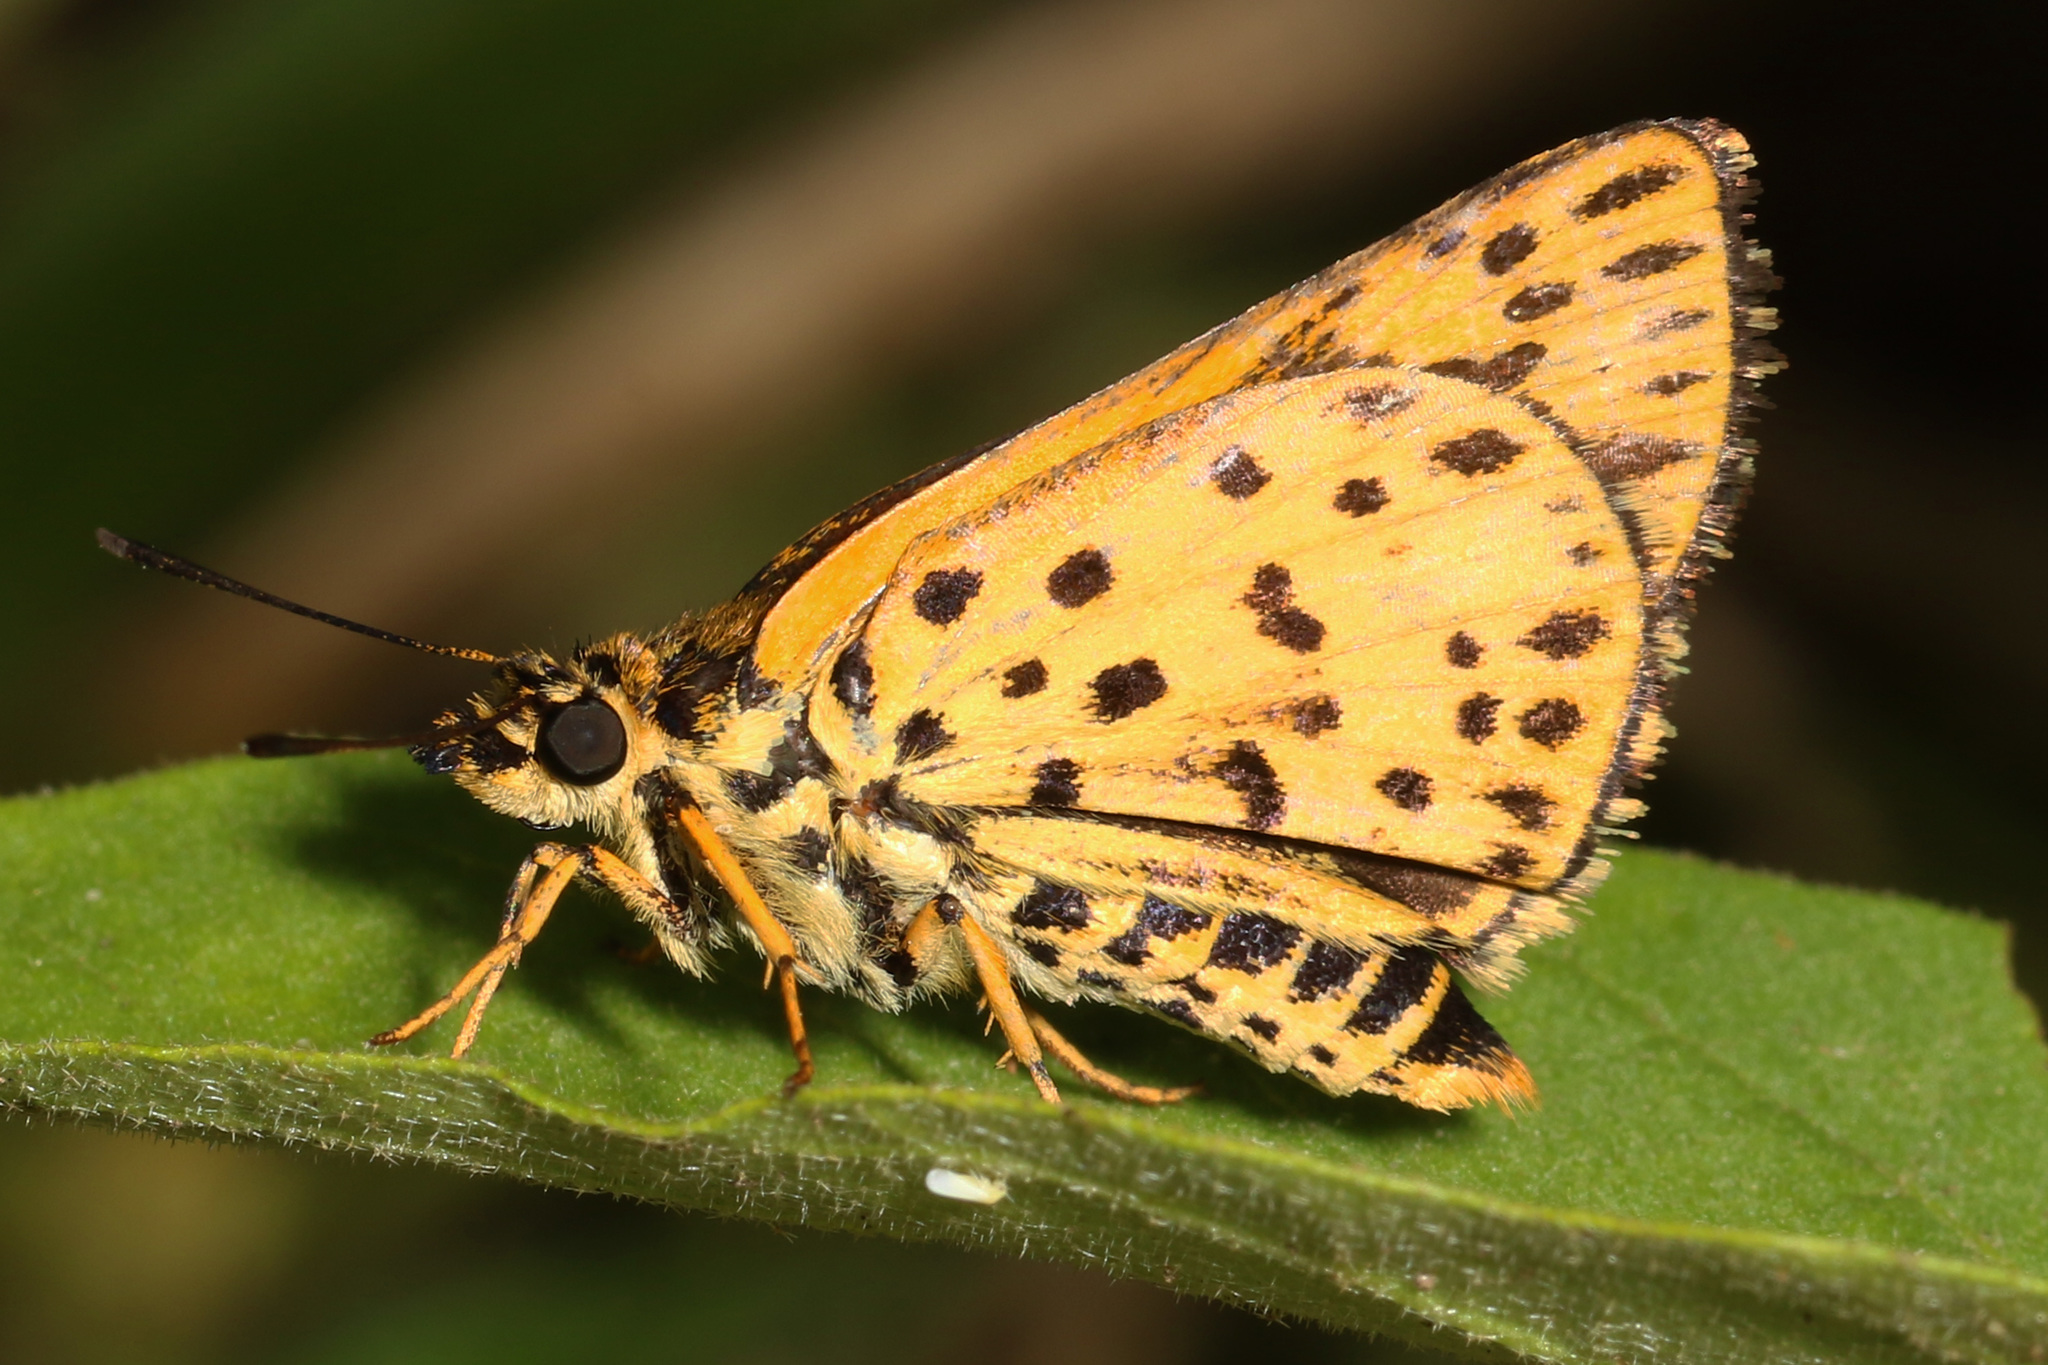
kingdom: Animalia
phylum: Arthropoda
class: Insecta
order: Lepidoptera
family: Hesperiidae
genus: Ampittia
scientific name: Ampittia capenas
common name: Riverine ranger
